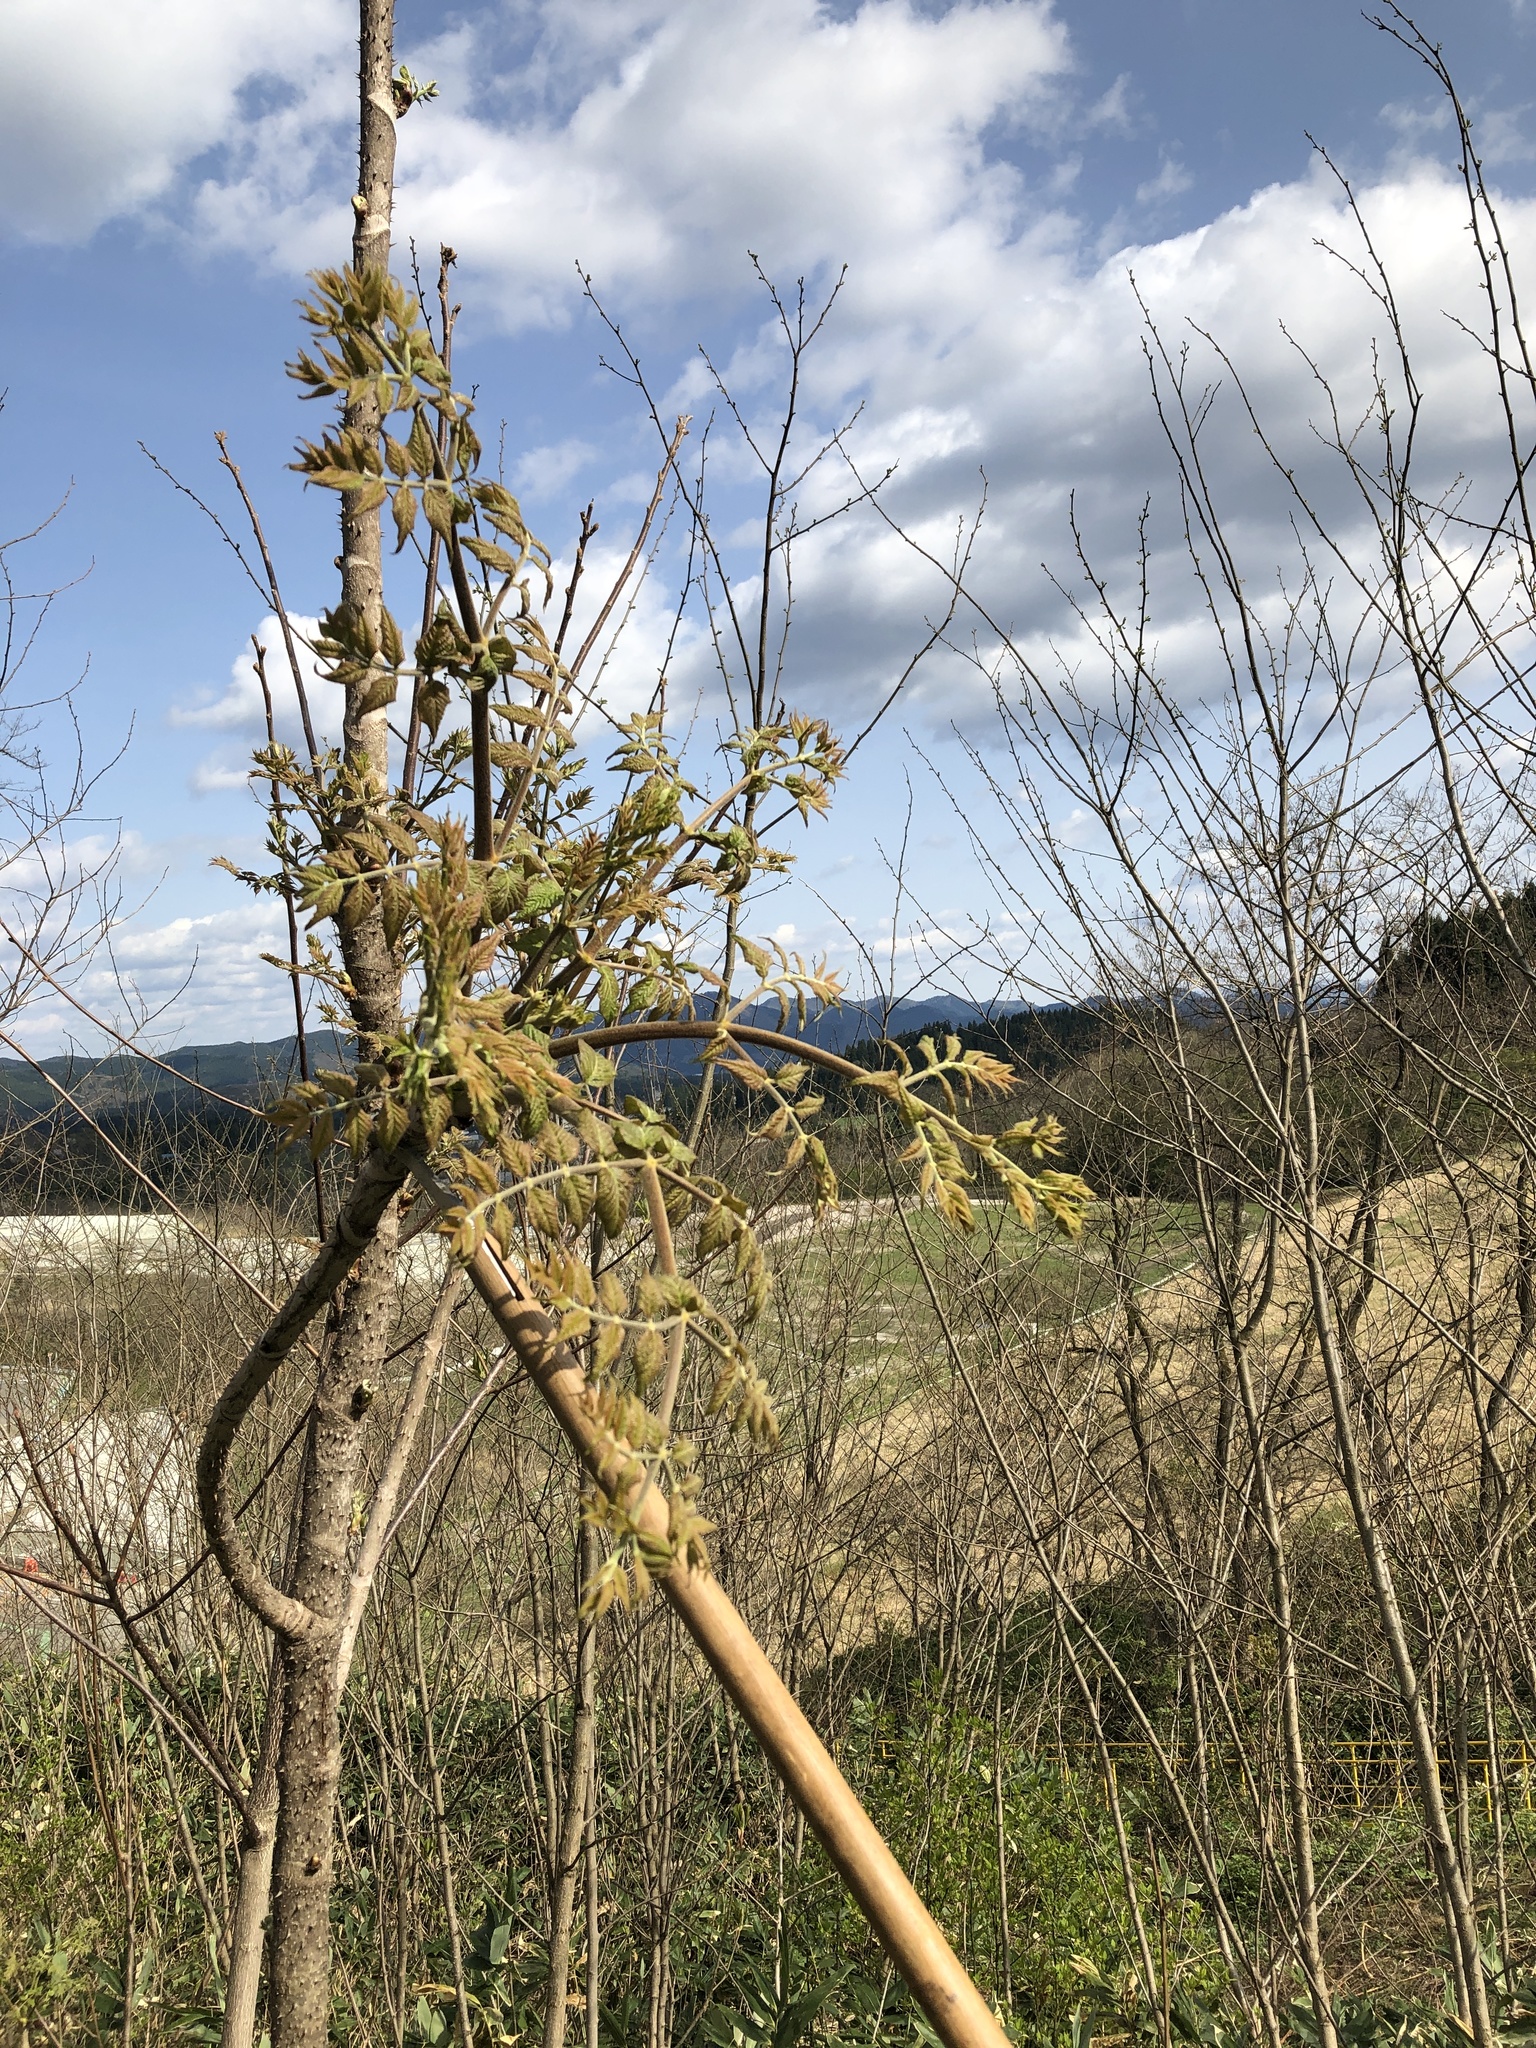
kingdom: Plantae
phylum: Tracheophyta
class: Magnoliopsida
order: Apiales
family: Araliaceae
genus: Aralia
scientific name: Aralia elata
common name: Japanese angelica-tree
